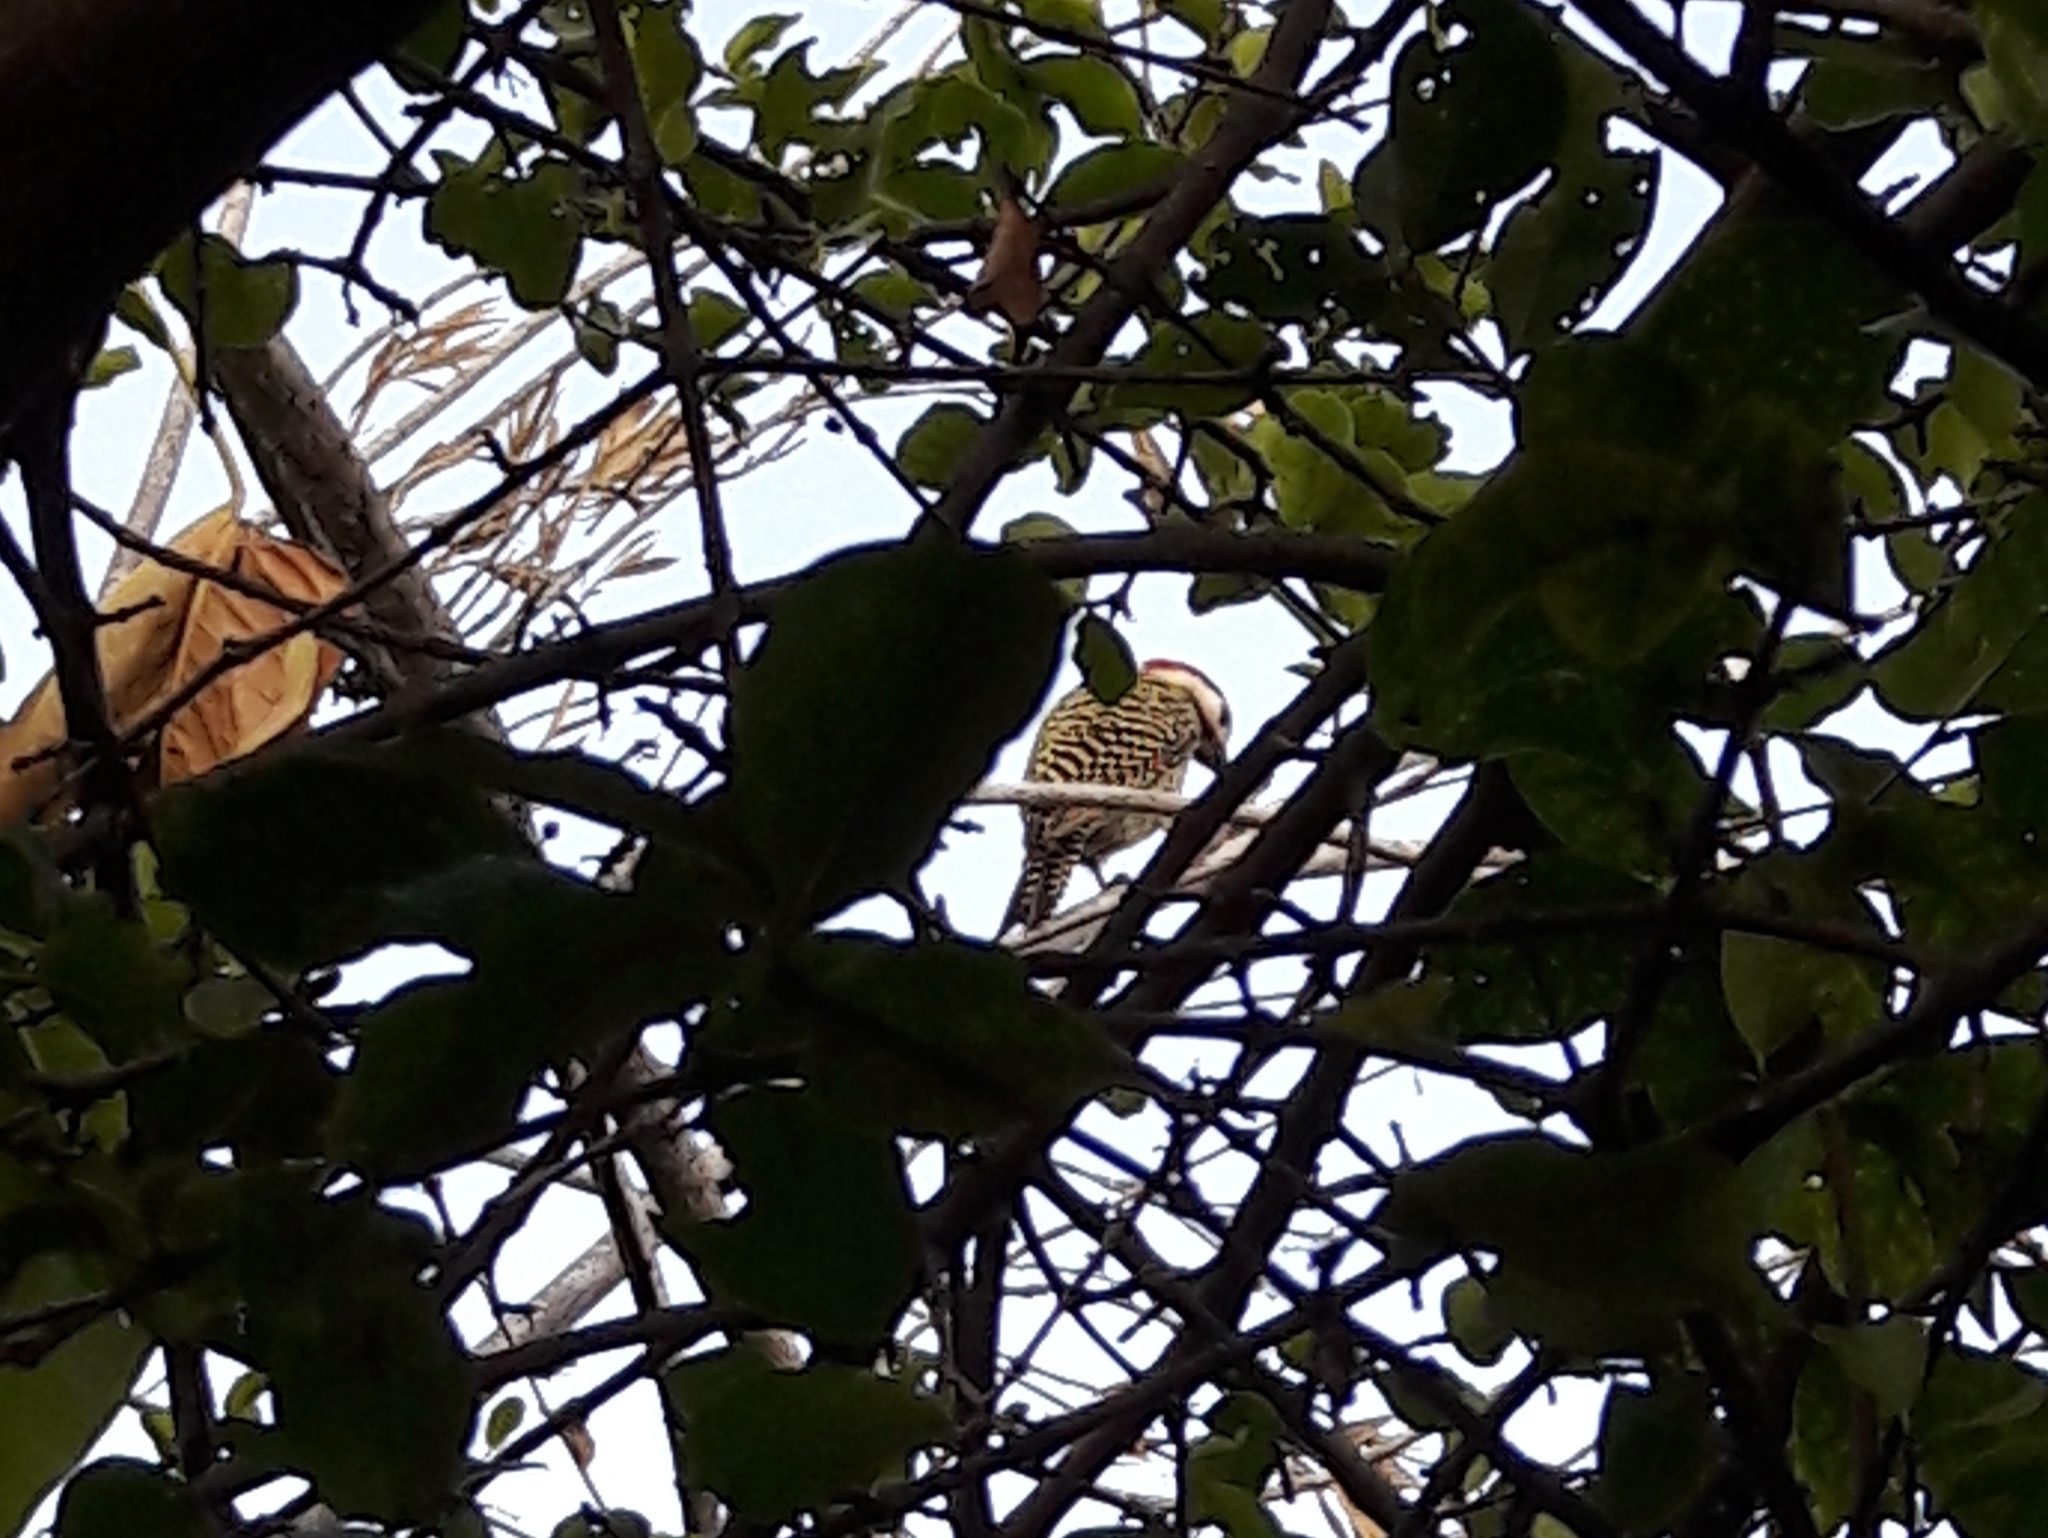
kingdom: Animalia
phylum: Chordata
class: Aves
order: Piciformes
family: Picidae
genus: Colaptes
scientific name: Colaptes melanochloros
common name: Green-barred woodpecker
